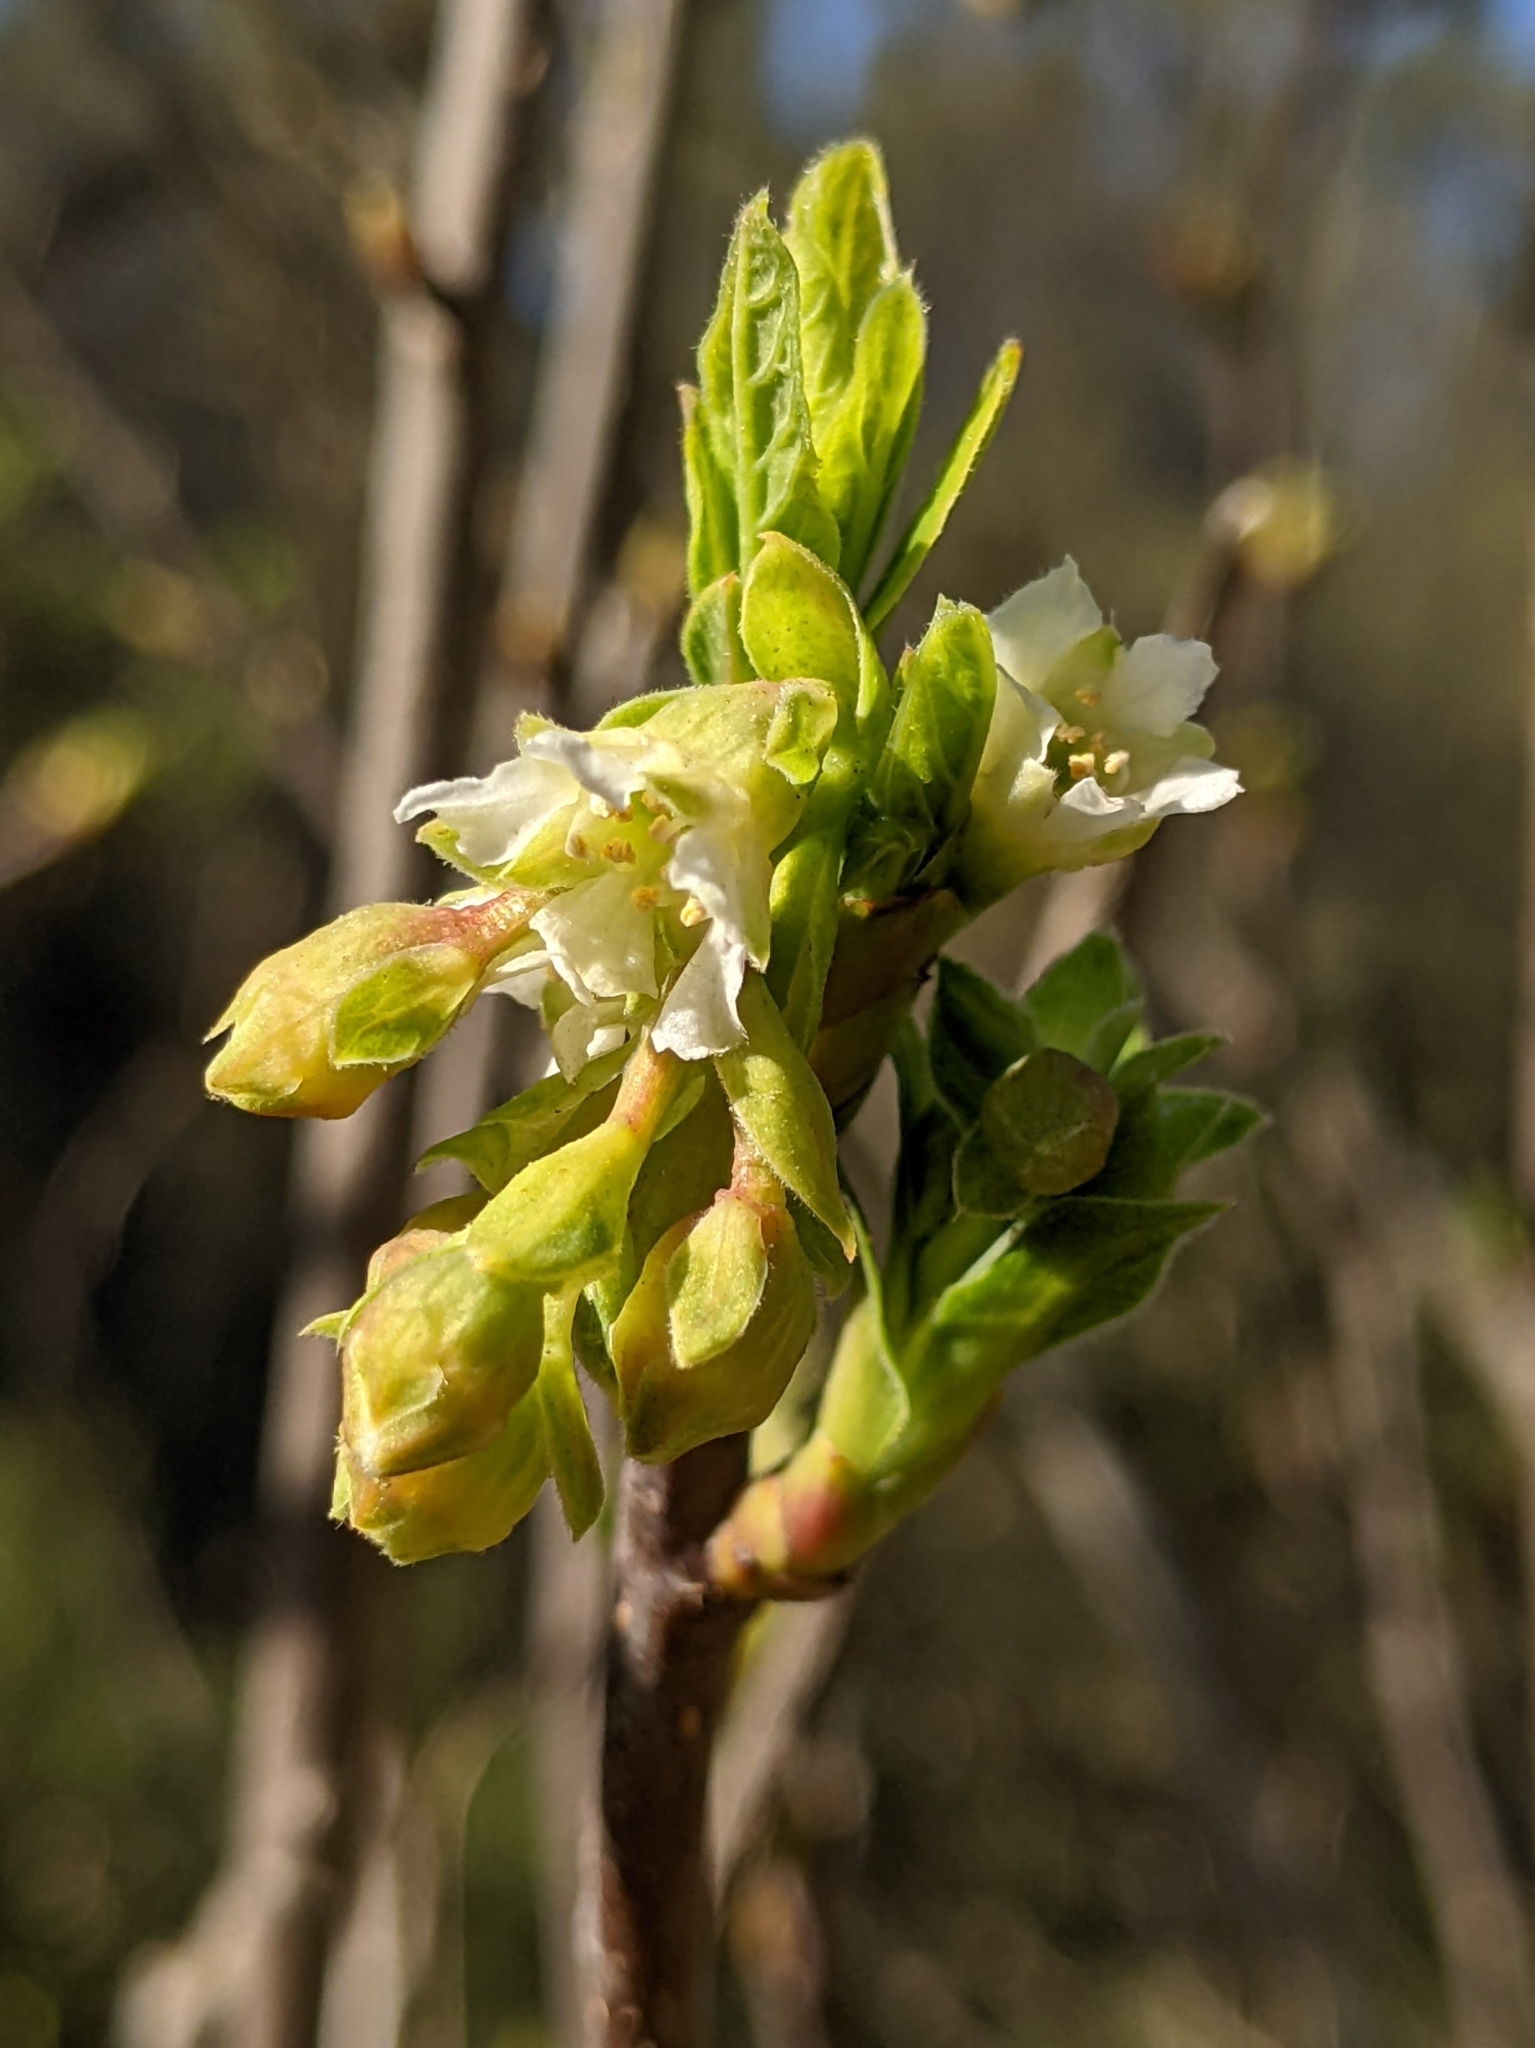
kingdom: Plantae
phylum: Tracheophyta
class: Magnoliopsida
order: Rosales
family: Rosaceae
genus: Oemleria
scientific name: Oemleria cerasiformis
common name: Osoberry
